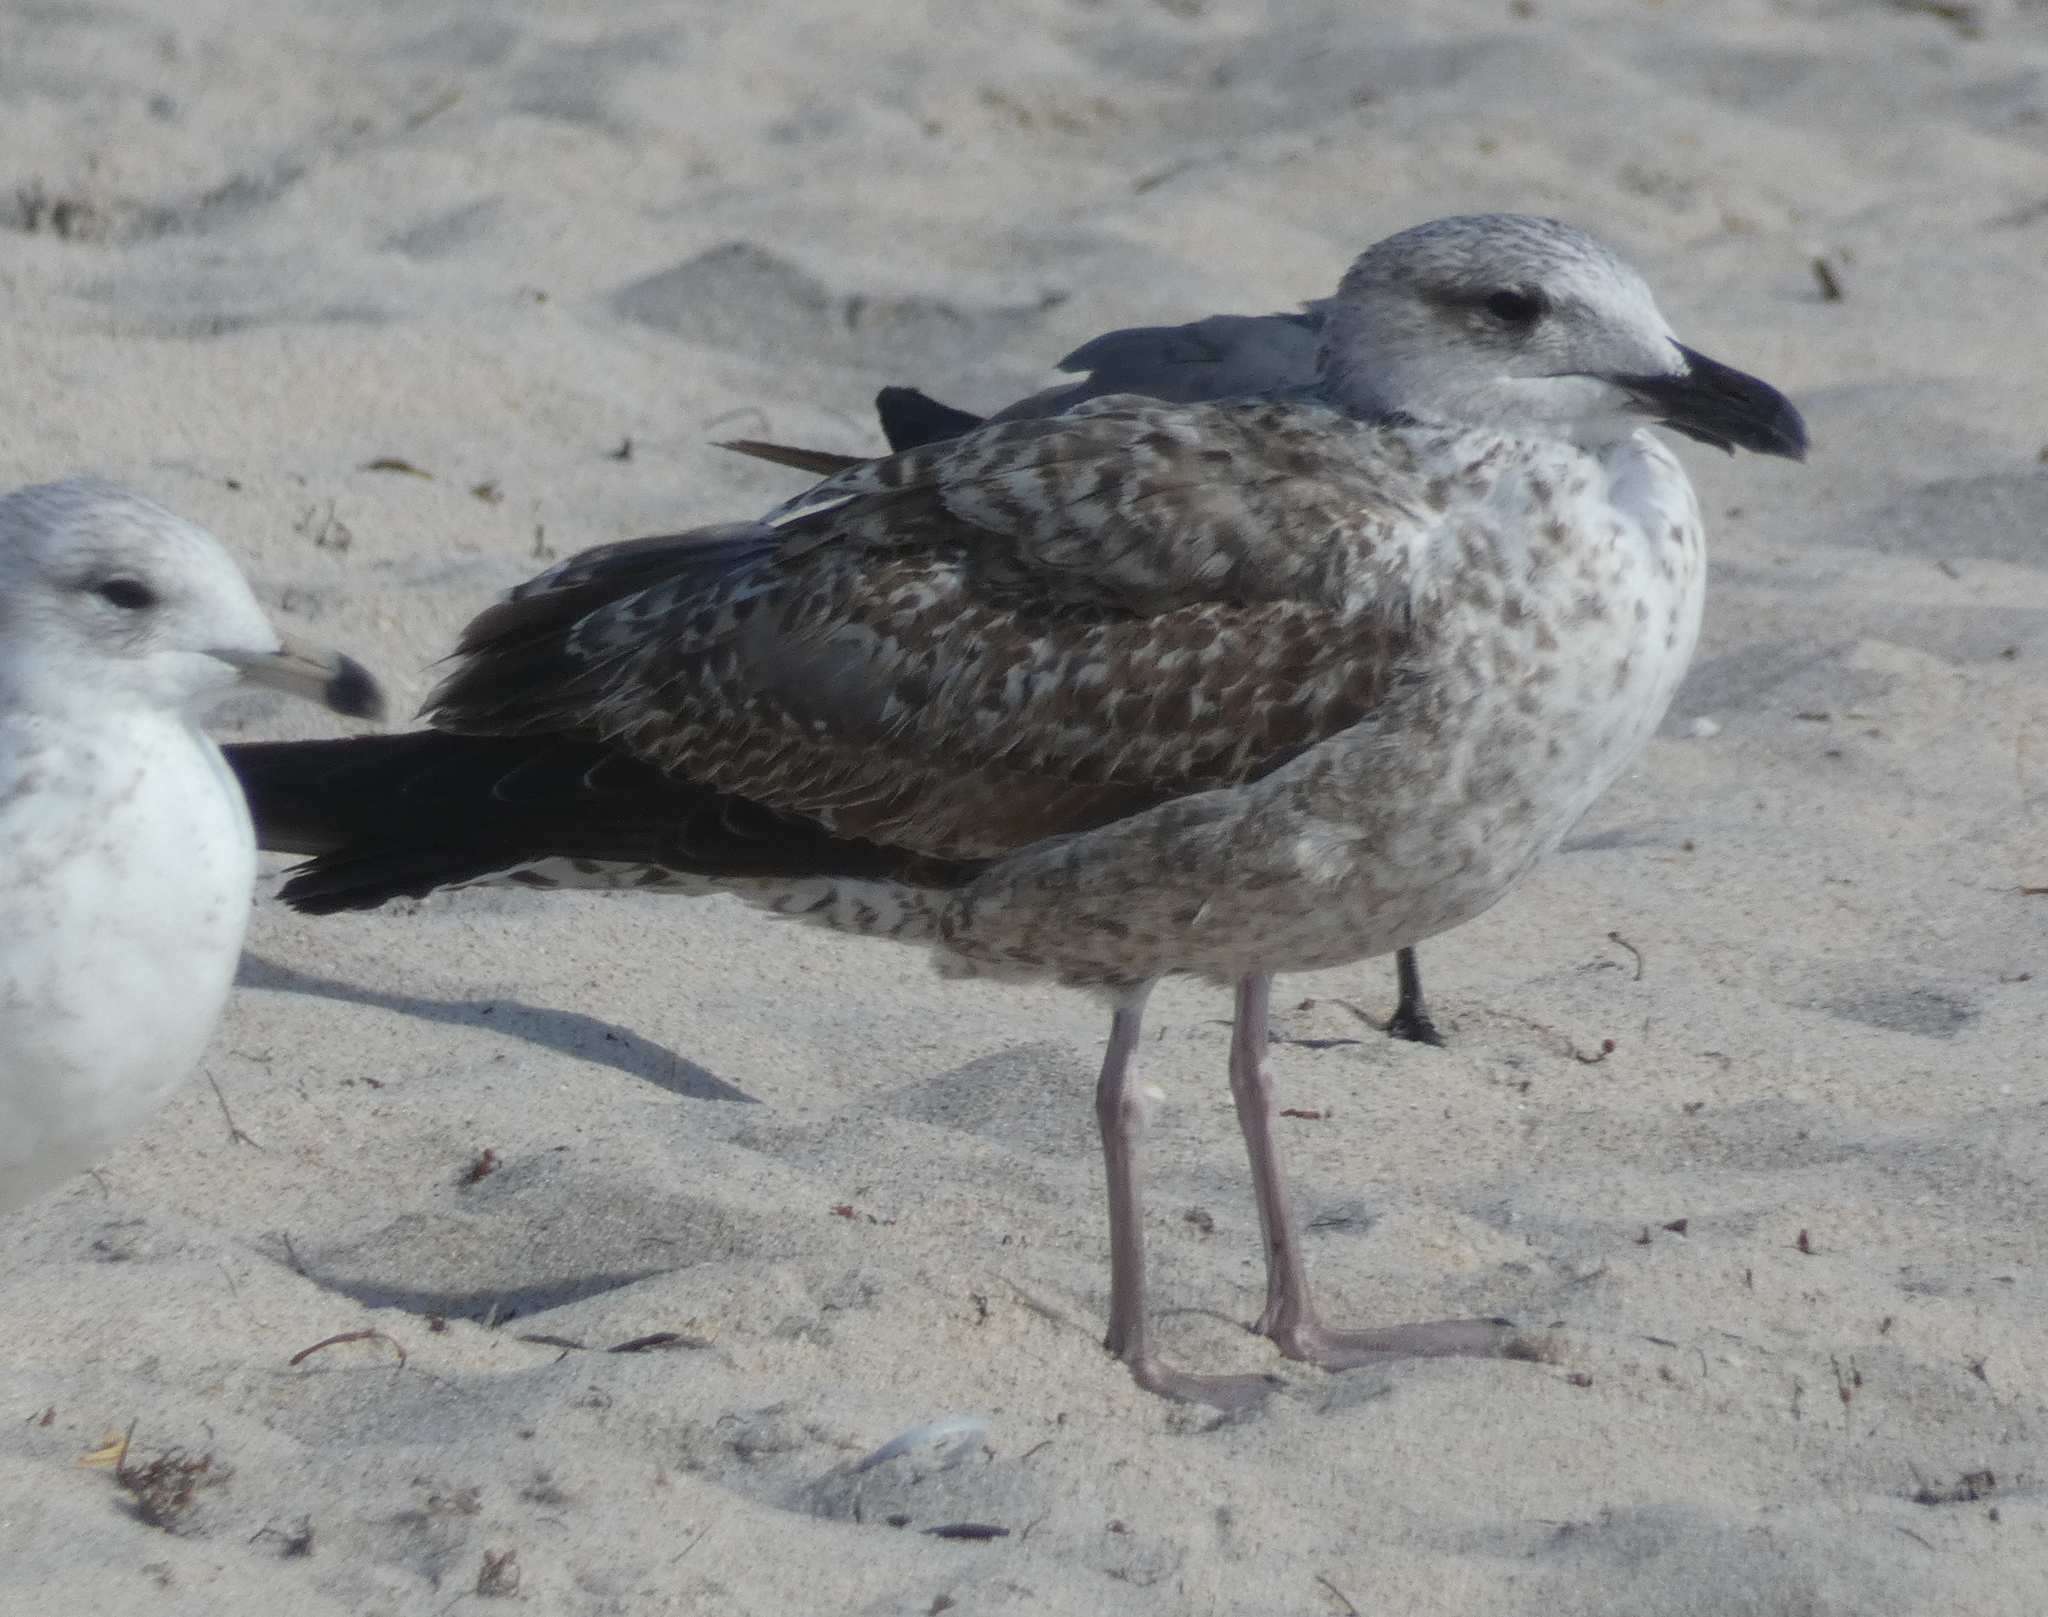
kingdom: Animalia
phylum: Chordata
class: Aves
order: Charadriiformes
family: Laridae
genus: Larus
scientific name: Larus fuscus
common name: Lesser black-backed gull
